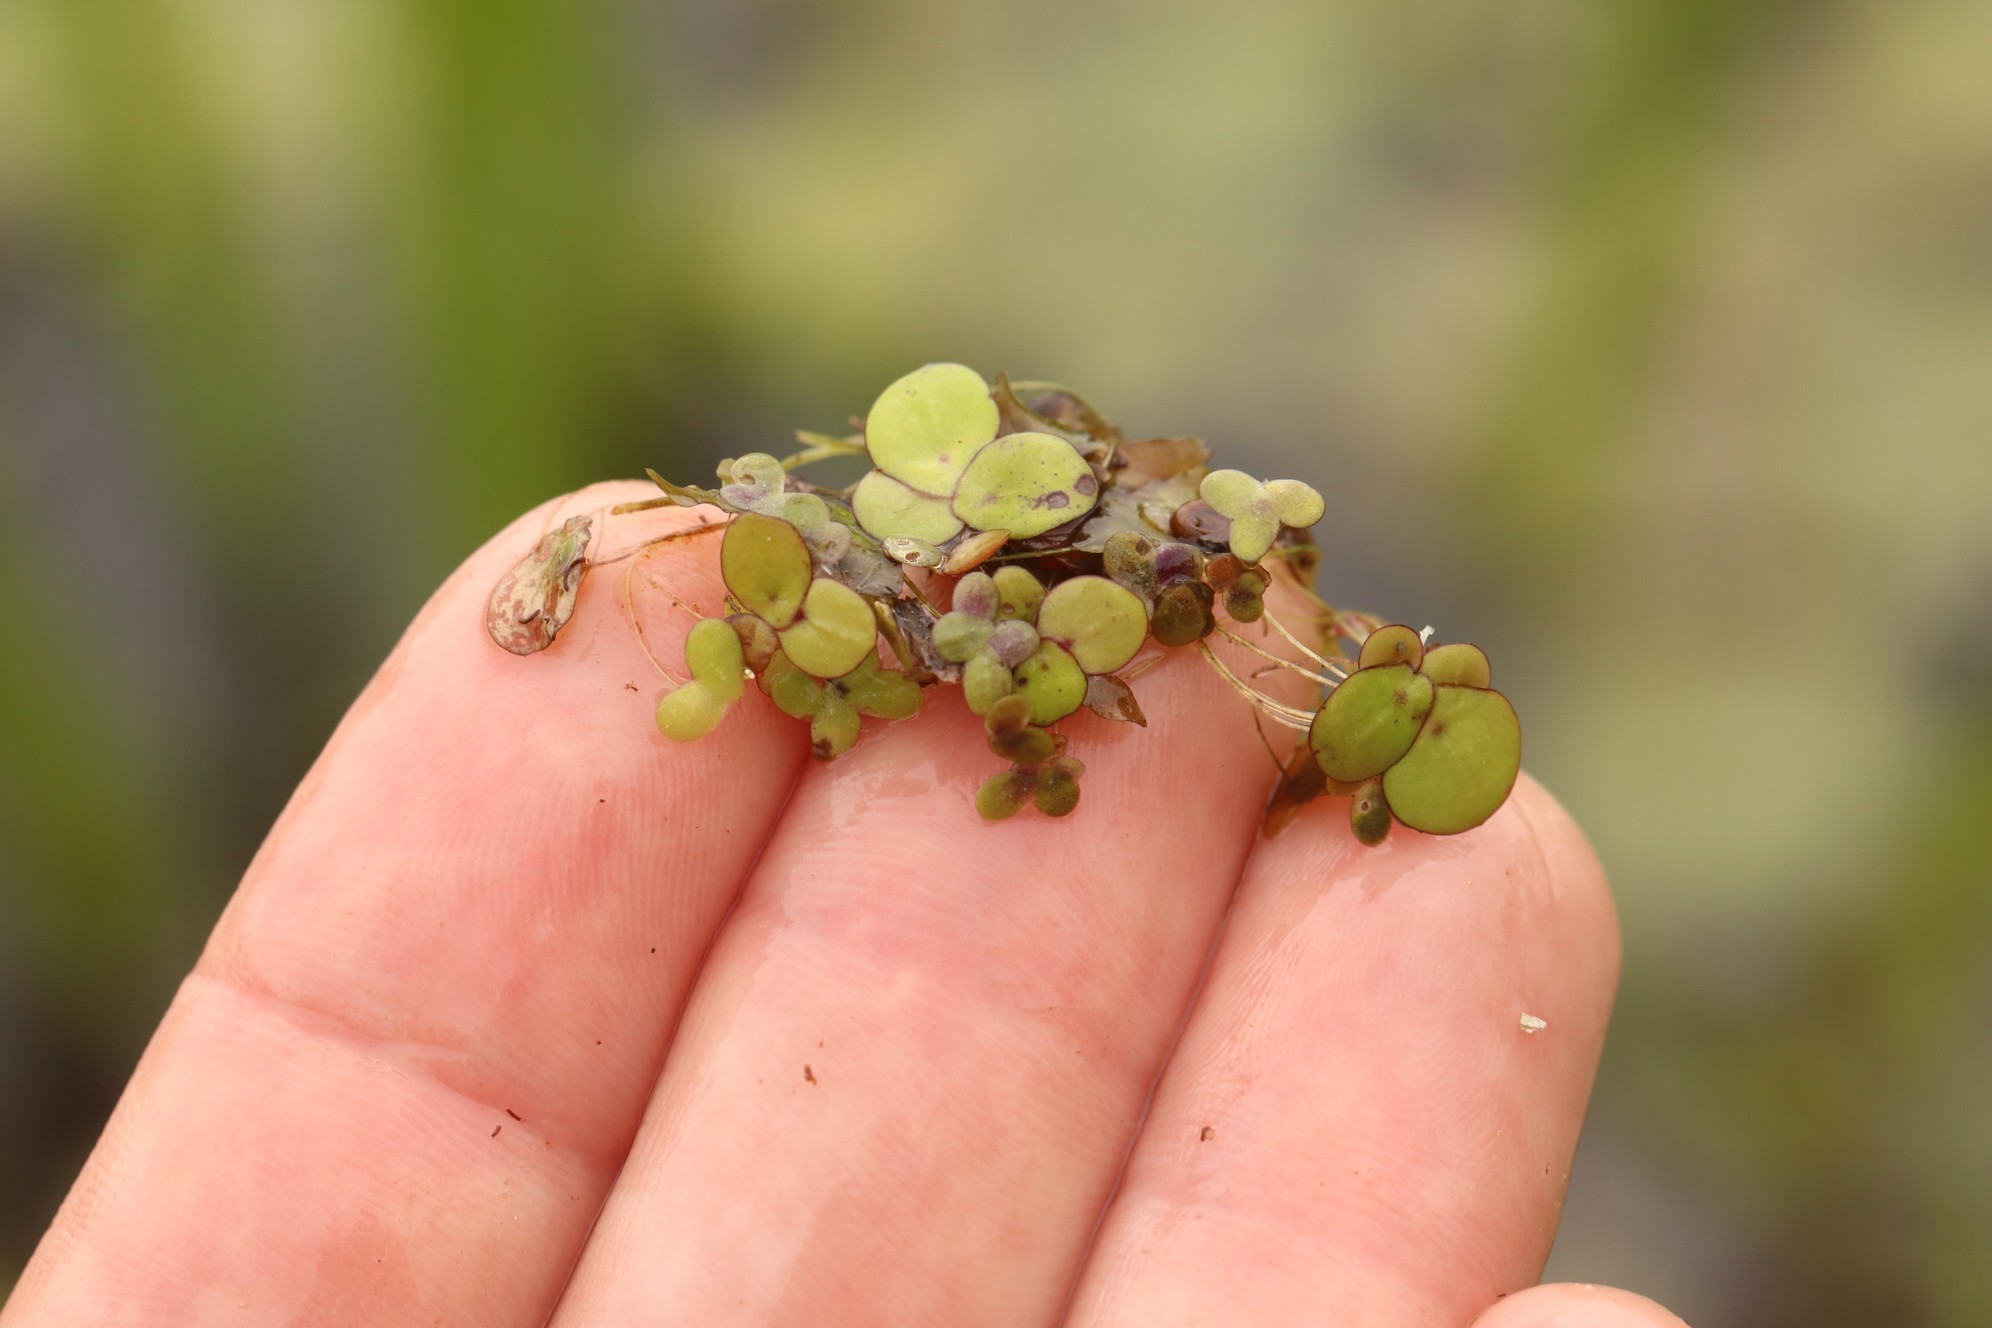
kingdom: Plantae
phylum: Tracheophyta
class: Liliopsida
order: Alismatales
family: Araceae
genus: Spirodela
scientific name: Spirodela polyrhiza
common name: Great duckweed
